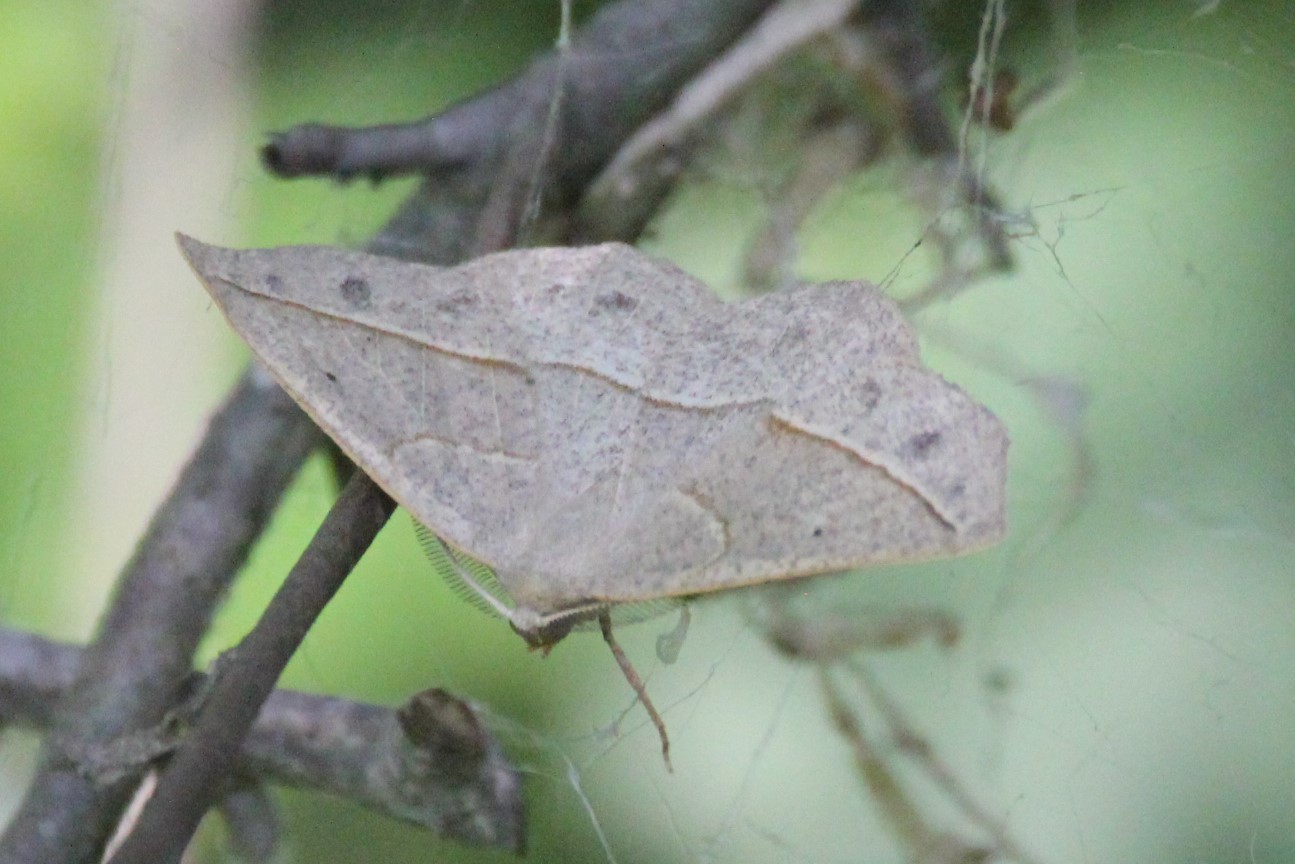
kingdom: Animalia
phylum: Arthropoda
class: Insecta
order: Lepidoptera
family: Geometridae
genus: Eusarca
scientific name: Eusarca confusaria
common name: Confused eusarca
